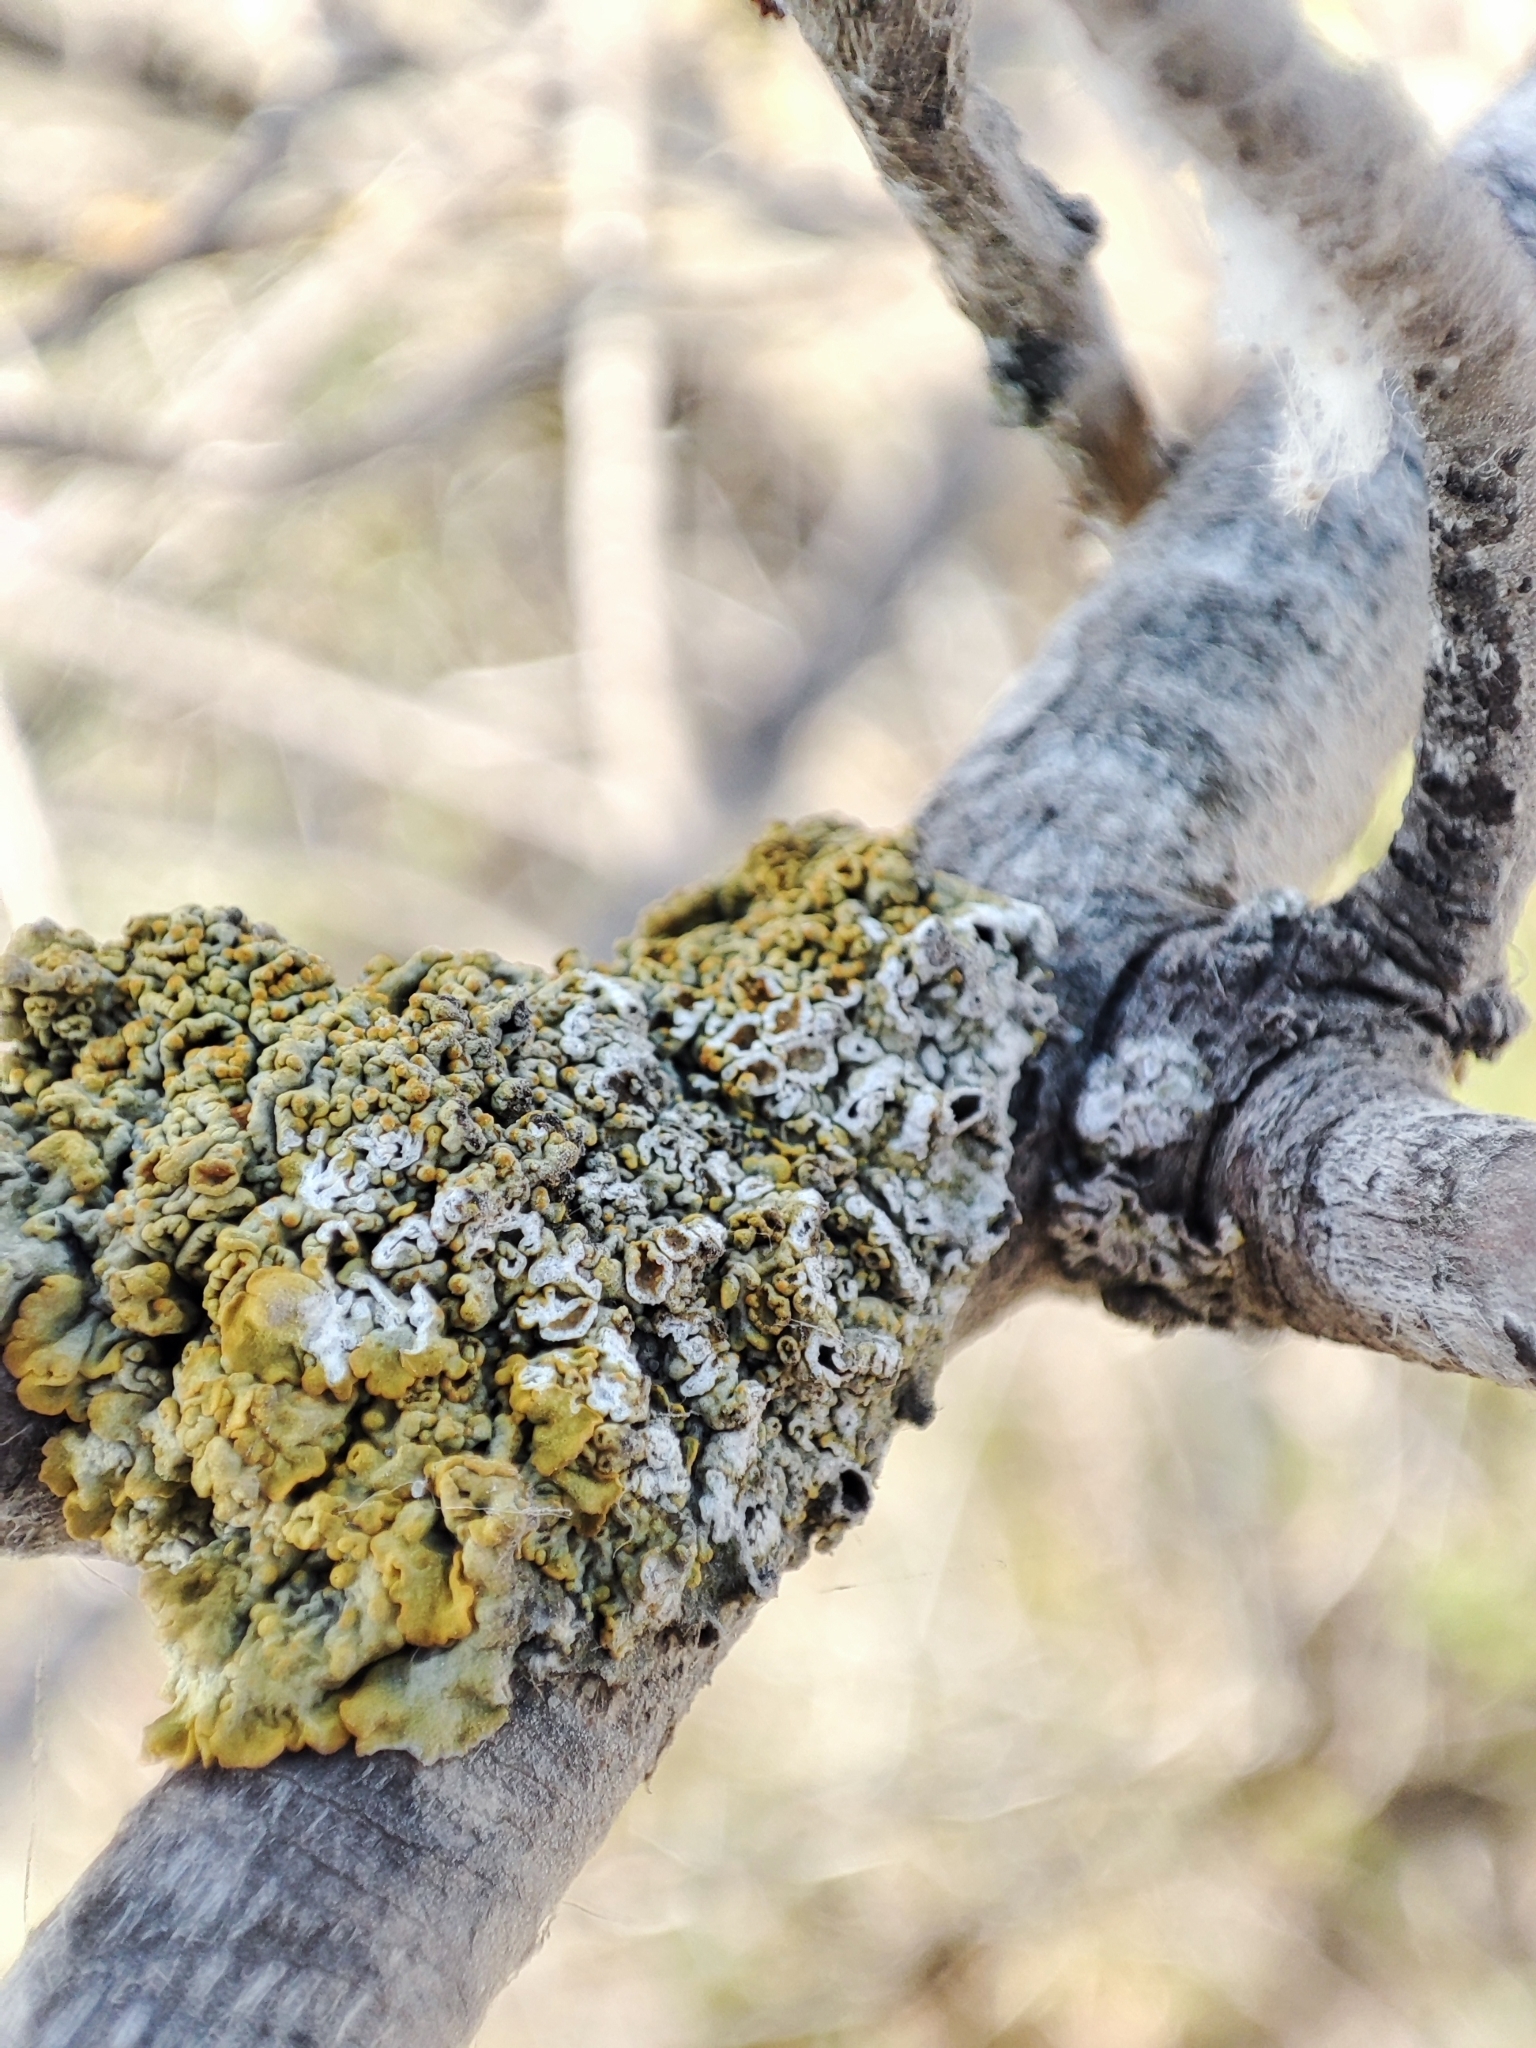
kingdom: Fungi
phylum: Ascomycota
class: Lecanoromycetes
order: Teloschistales
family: Teloschistaceae
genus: Xanthoria
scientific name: Xanthoria parietina
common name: Common orange lichen
